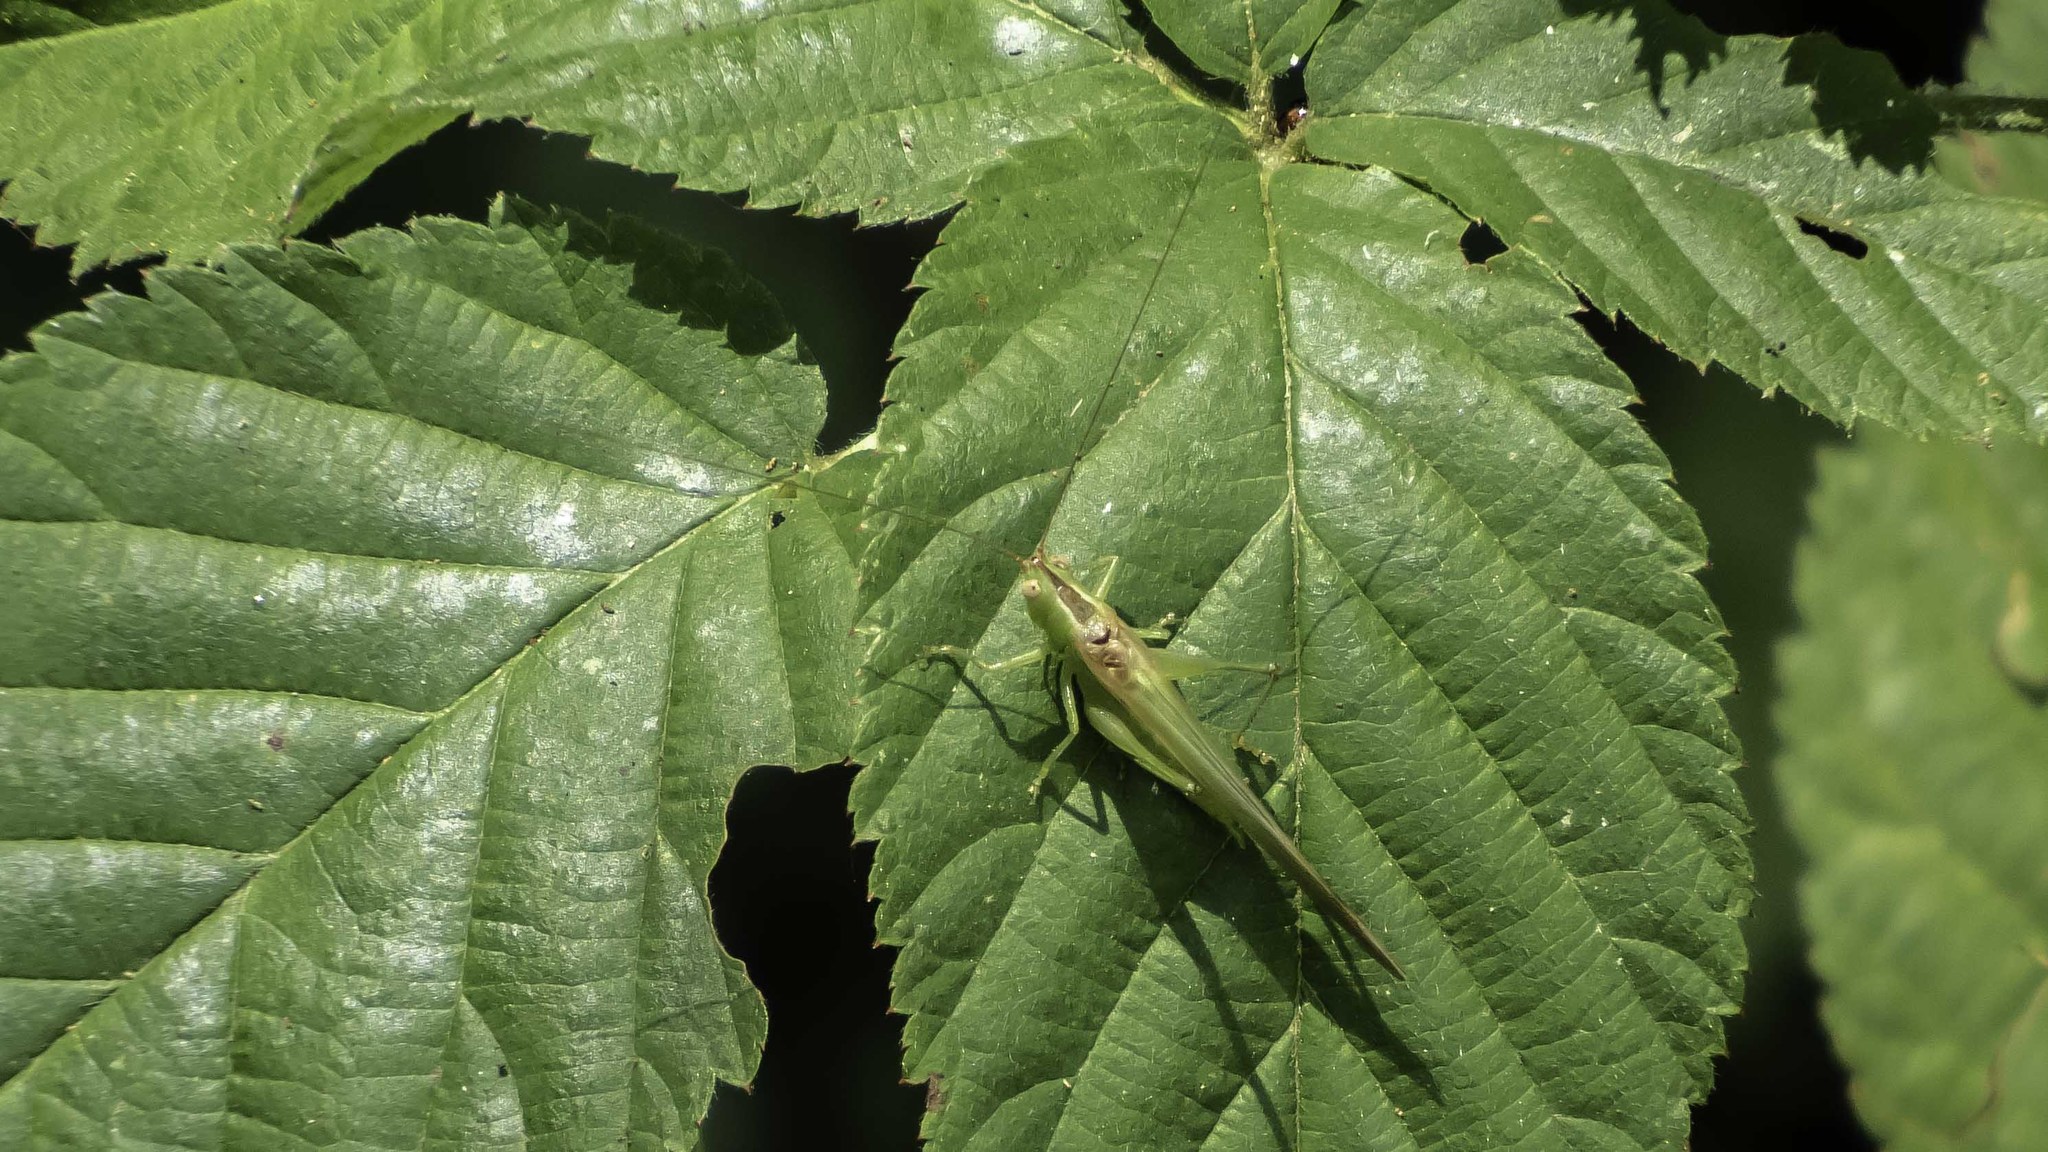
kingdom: Animalia
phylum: Arthropoda
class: Insecta
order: Orthoptera
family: Tettigoniidae
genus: Conocephalus
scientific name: Conocephalus fasciatus
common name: Slender meadow katydid
